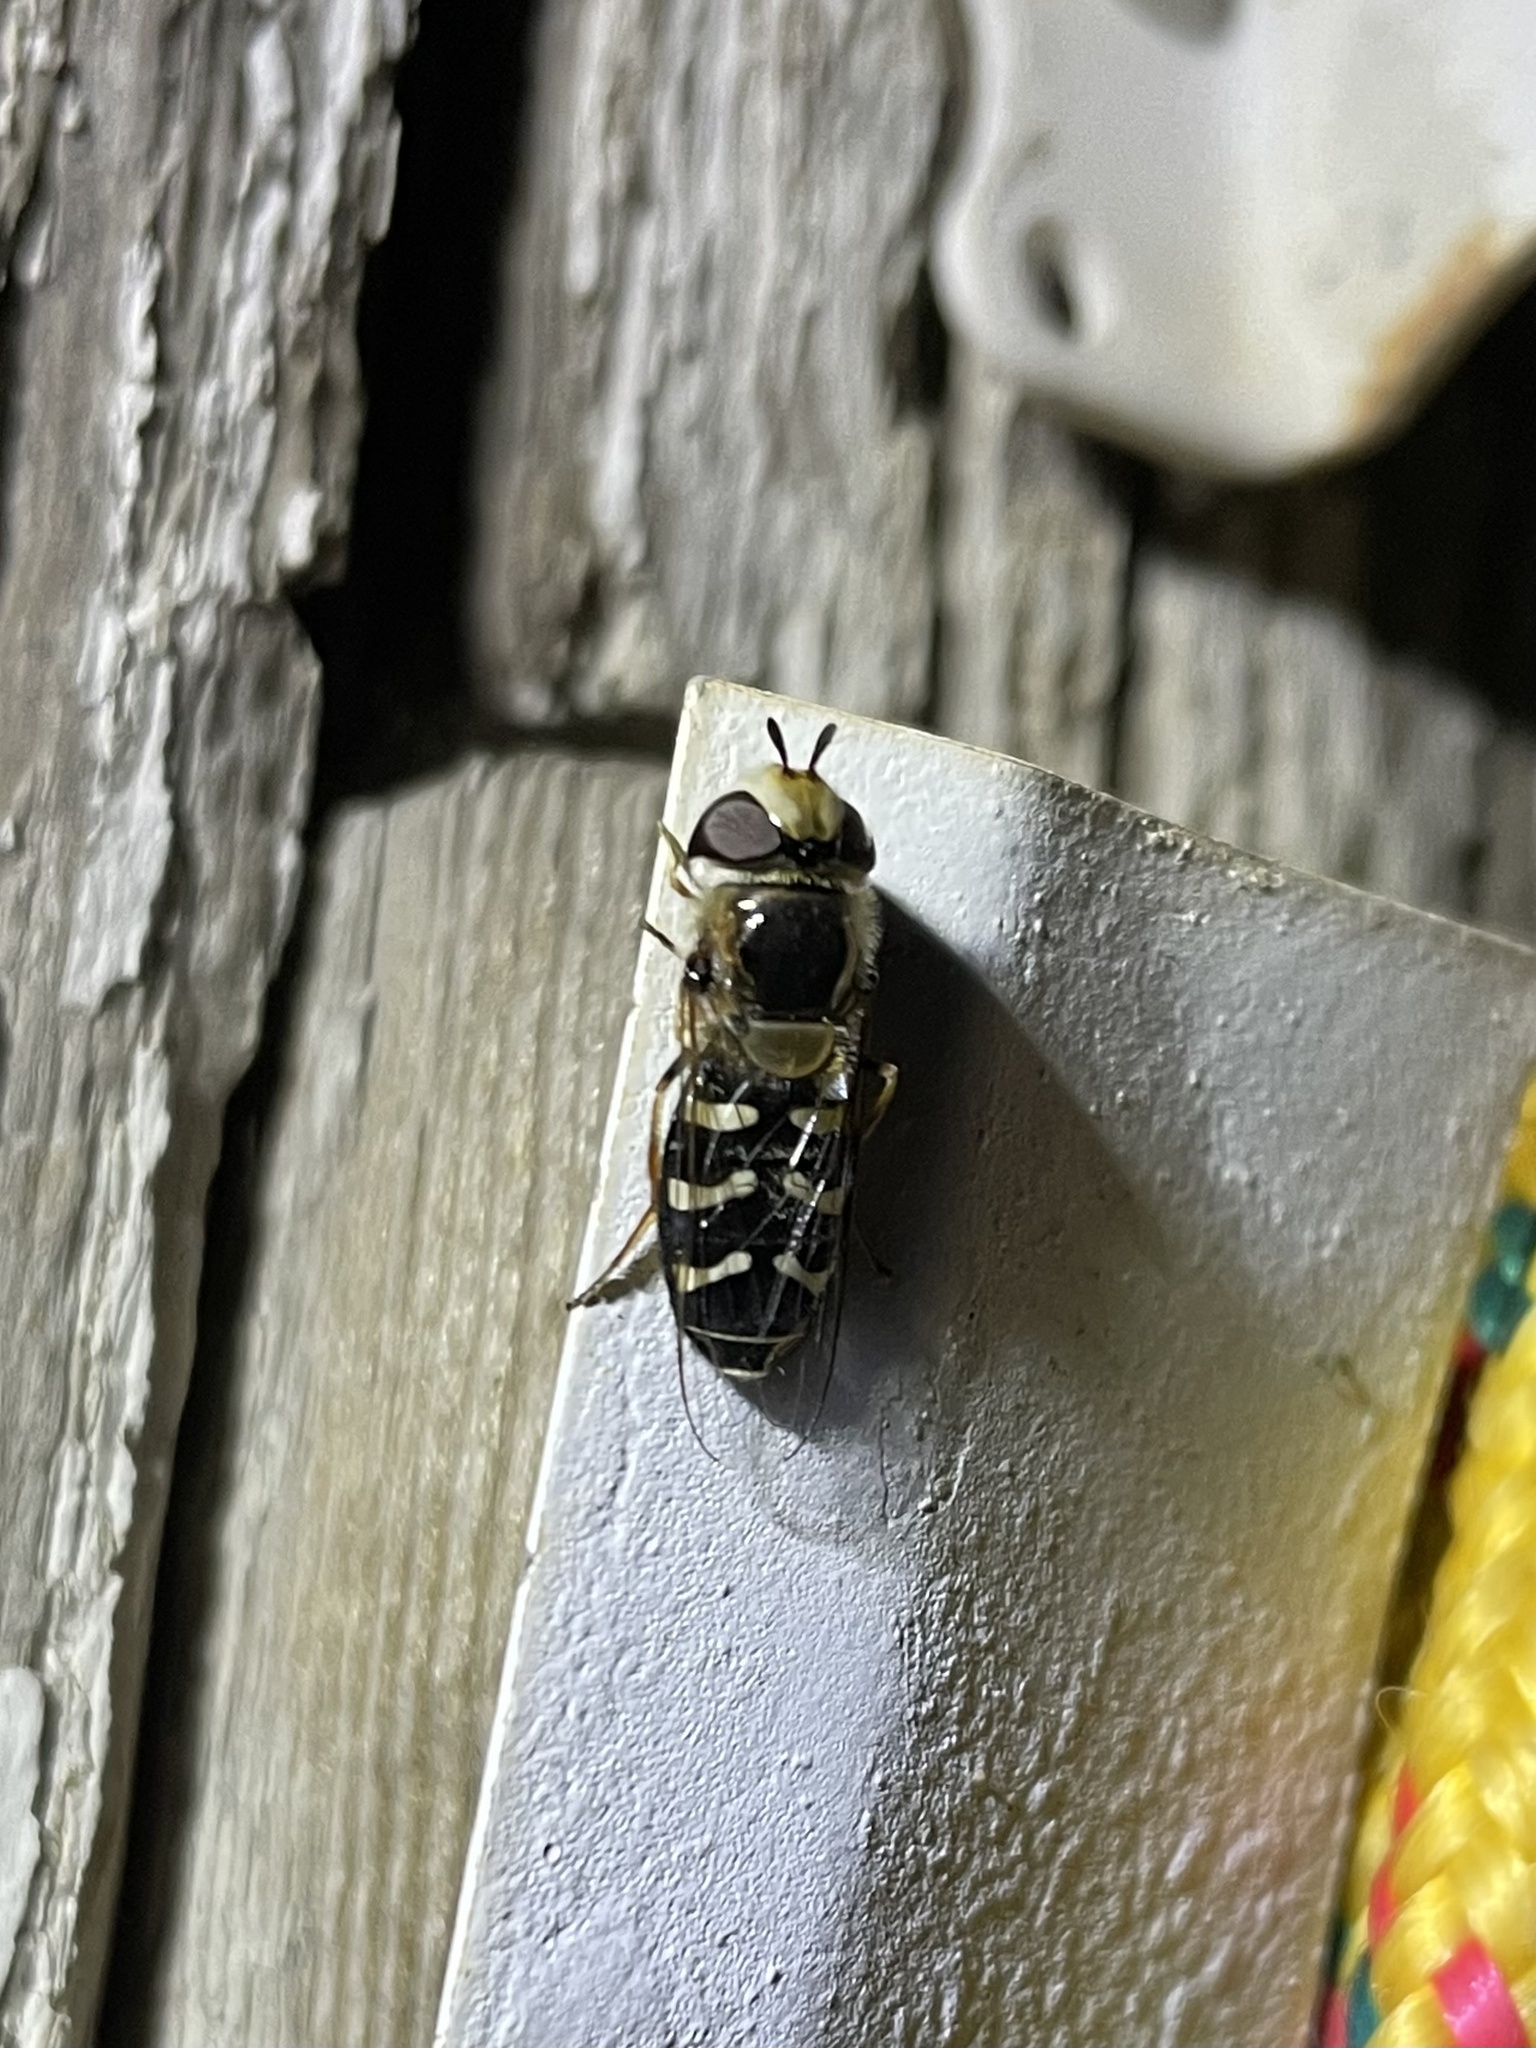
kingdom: Animalia
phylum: Arthropoda
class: Insecta
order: Diptera
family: Syrphidae
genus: Scaeva
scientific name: Scaeva affinis
